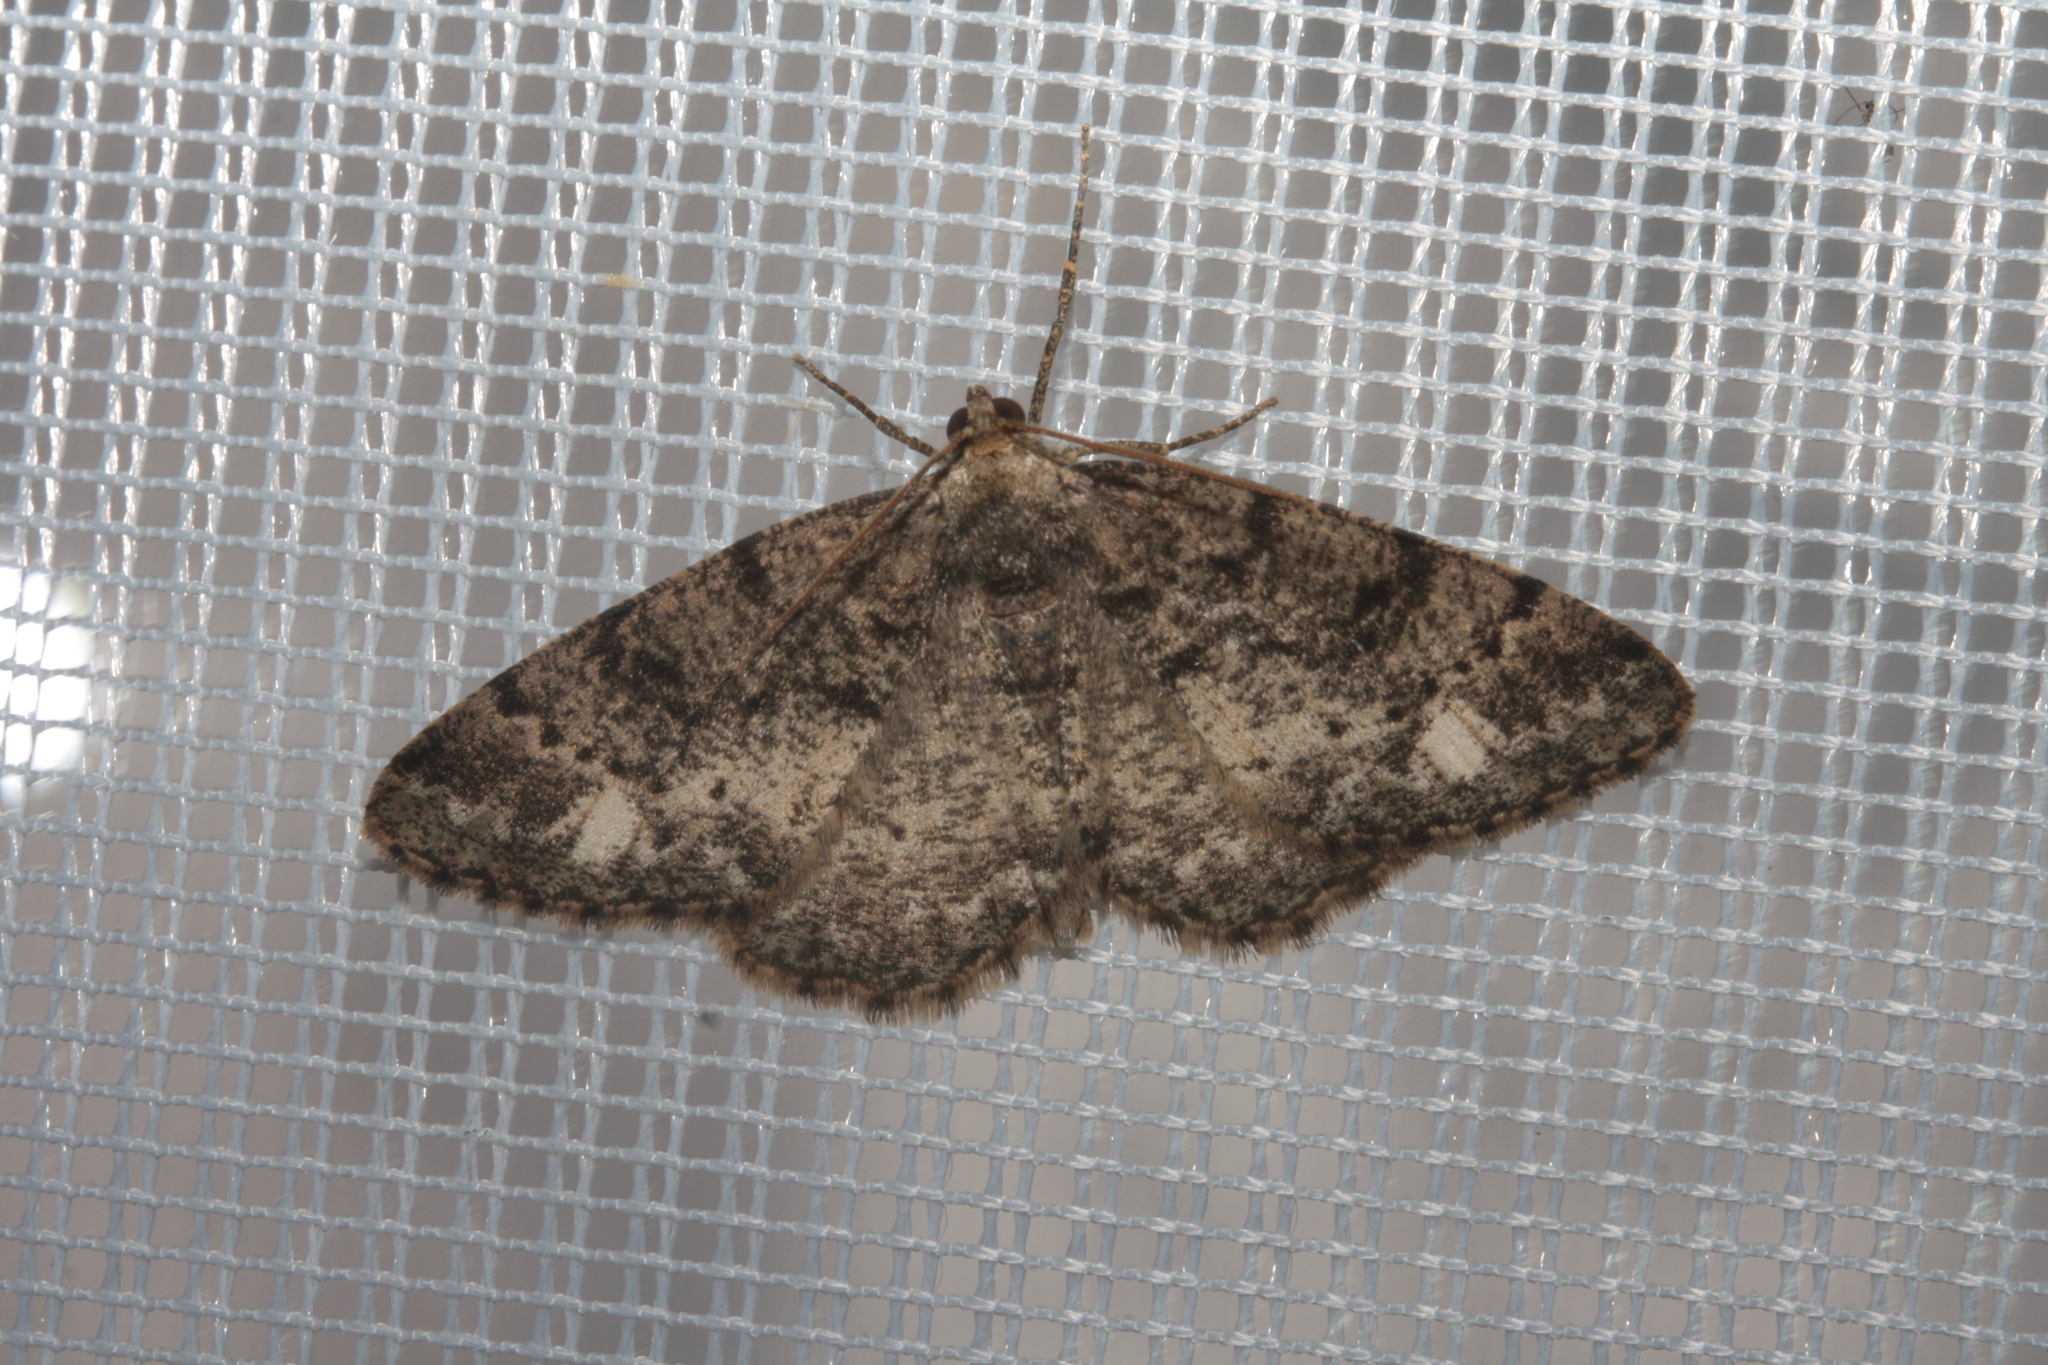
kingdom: Animalia
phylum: Arthropoda
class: Insecta
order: Lepidoptera
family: Geometridae
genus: Parectropis
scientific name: Parectropis similaria
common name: Brindled white-spot
